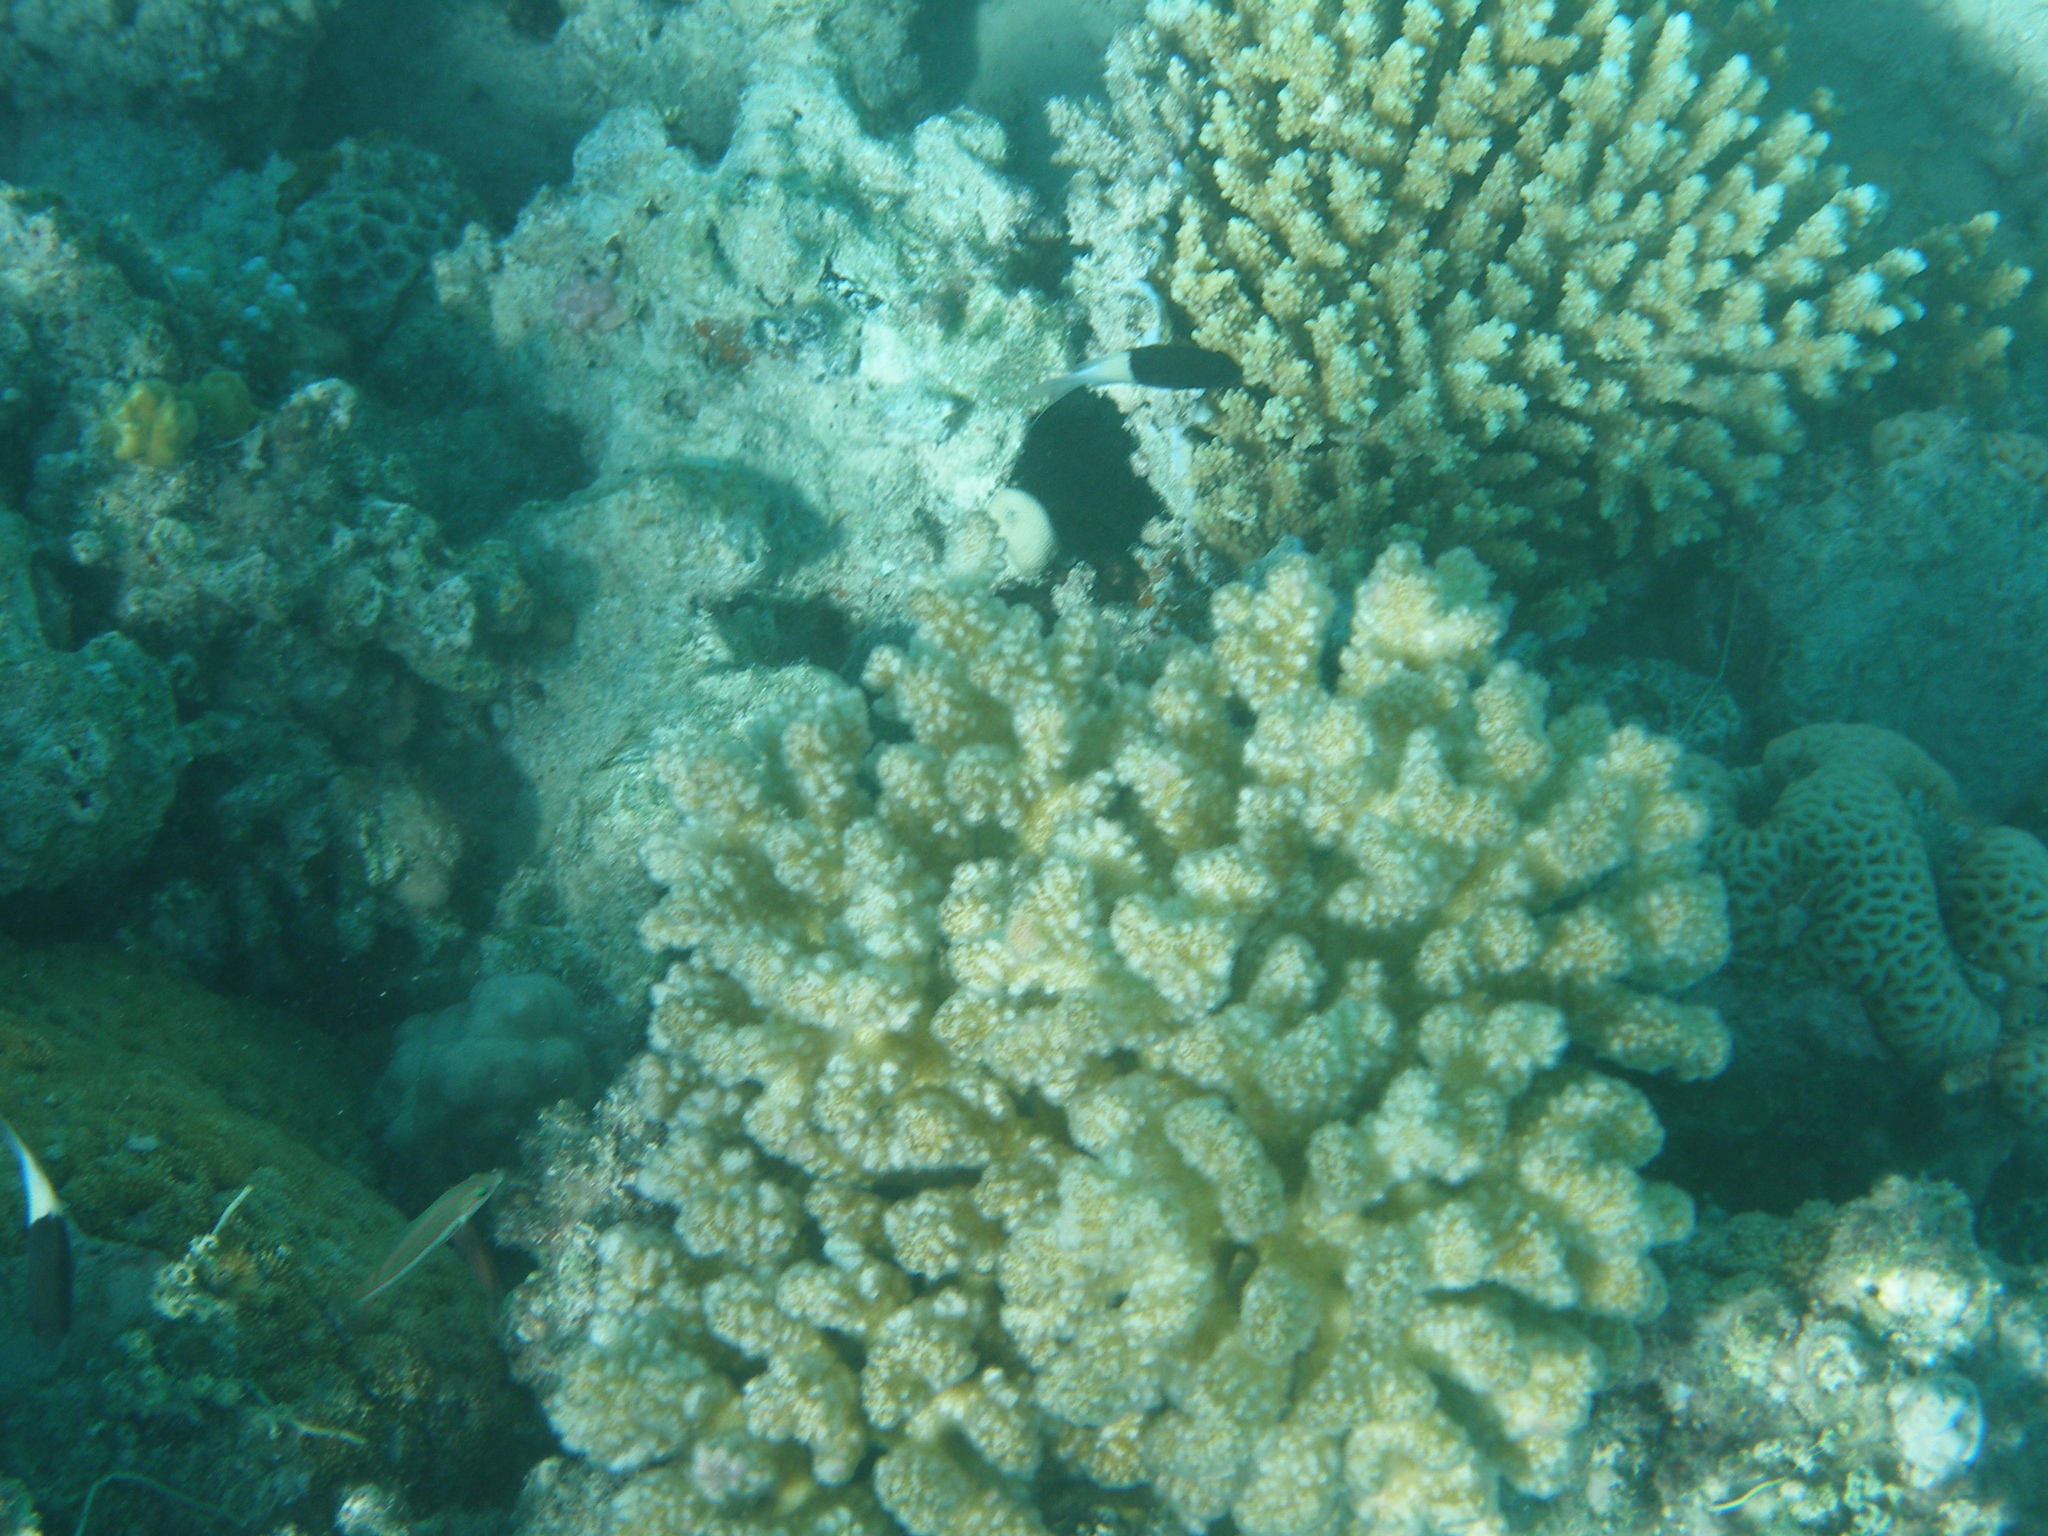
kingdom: Animalia
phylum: Cnidaria
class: Anthozoa
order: Scleractinia
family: Pocilloporidae
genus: Pocillopora
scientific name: Pocillopora verrucosa
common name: Cauliflower coral
